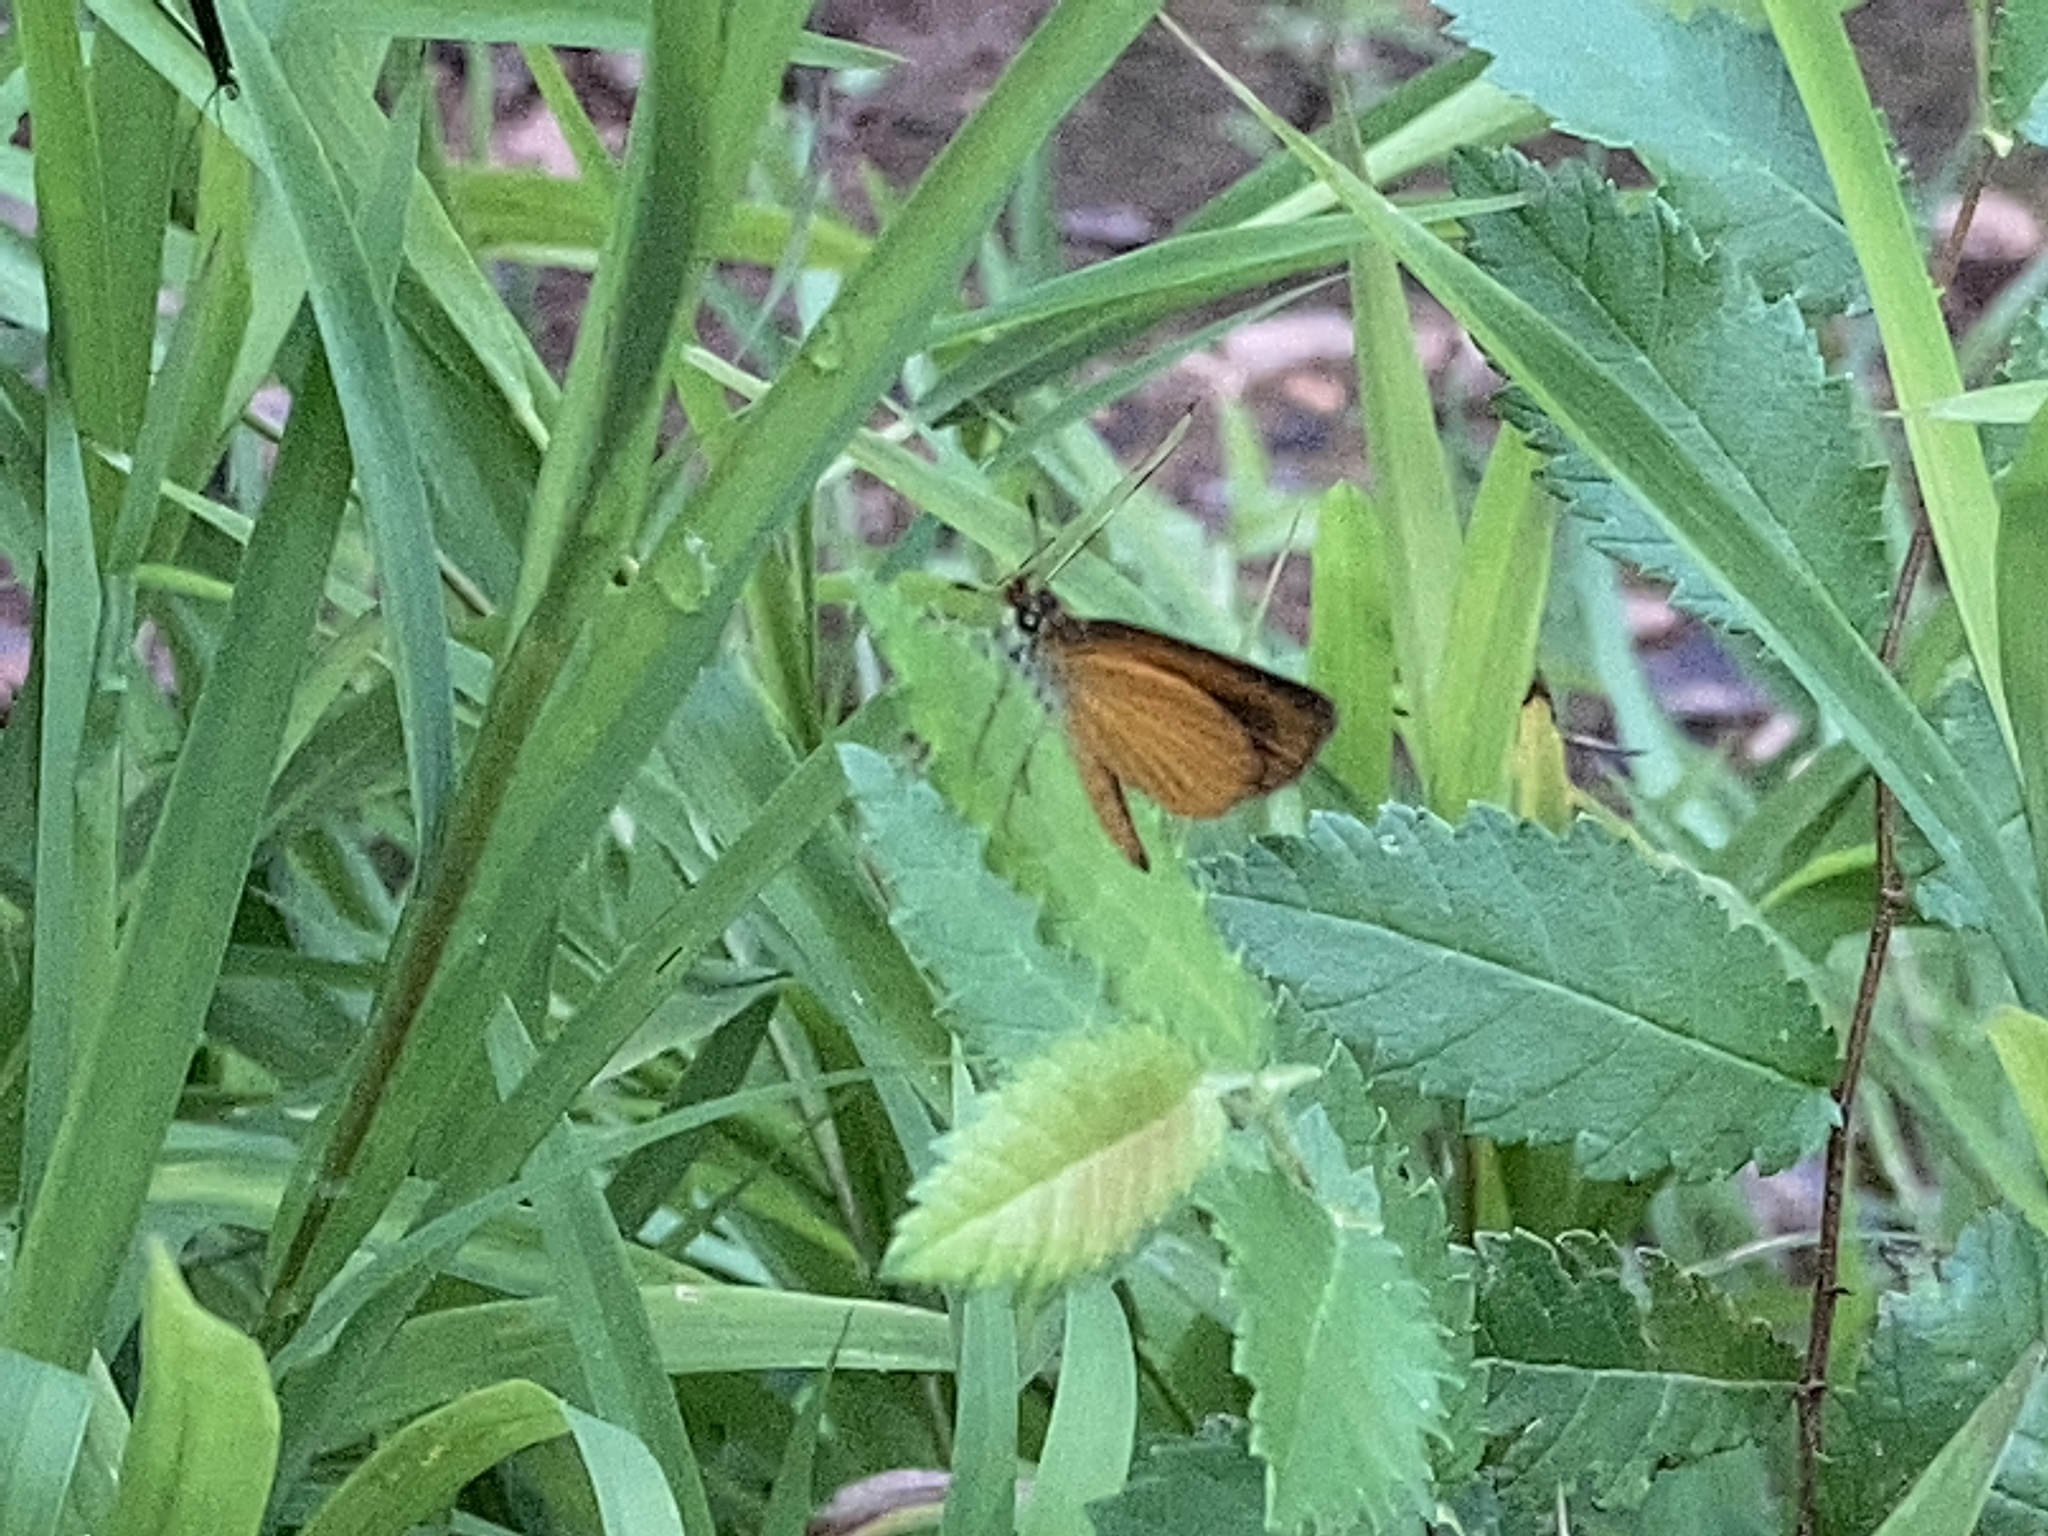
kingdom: Animalia
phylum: Arthropoda
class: Insecta
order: Lepidoptera
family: Hesperiidae
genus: Ancyloxypha
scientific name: Ancyloxypha numitor
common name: Least skipper
